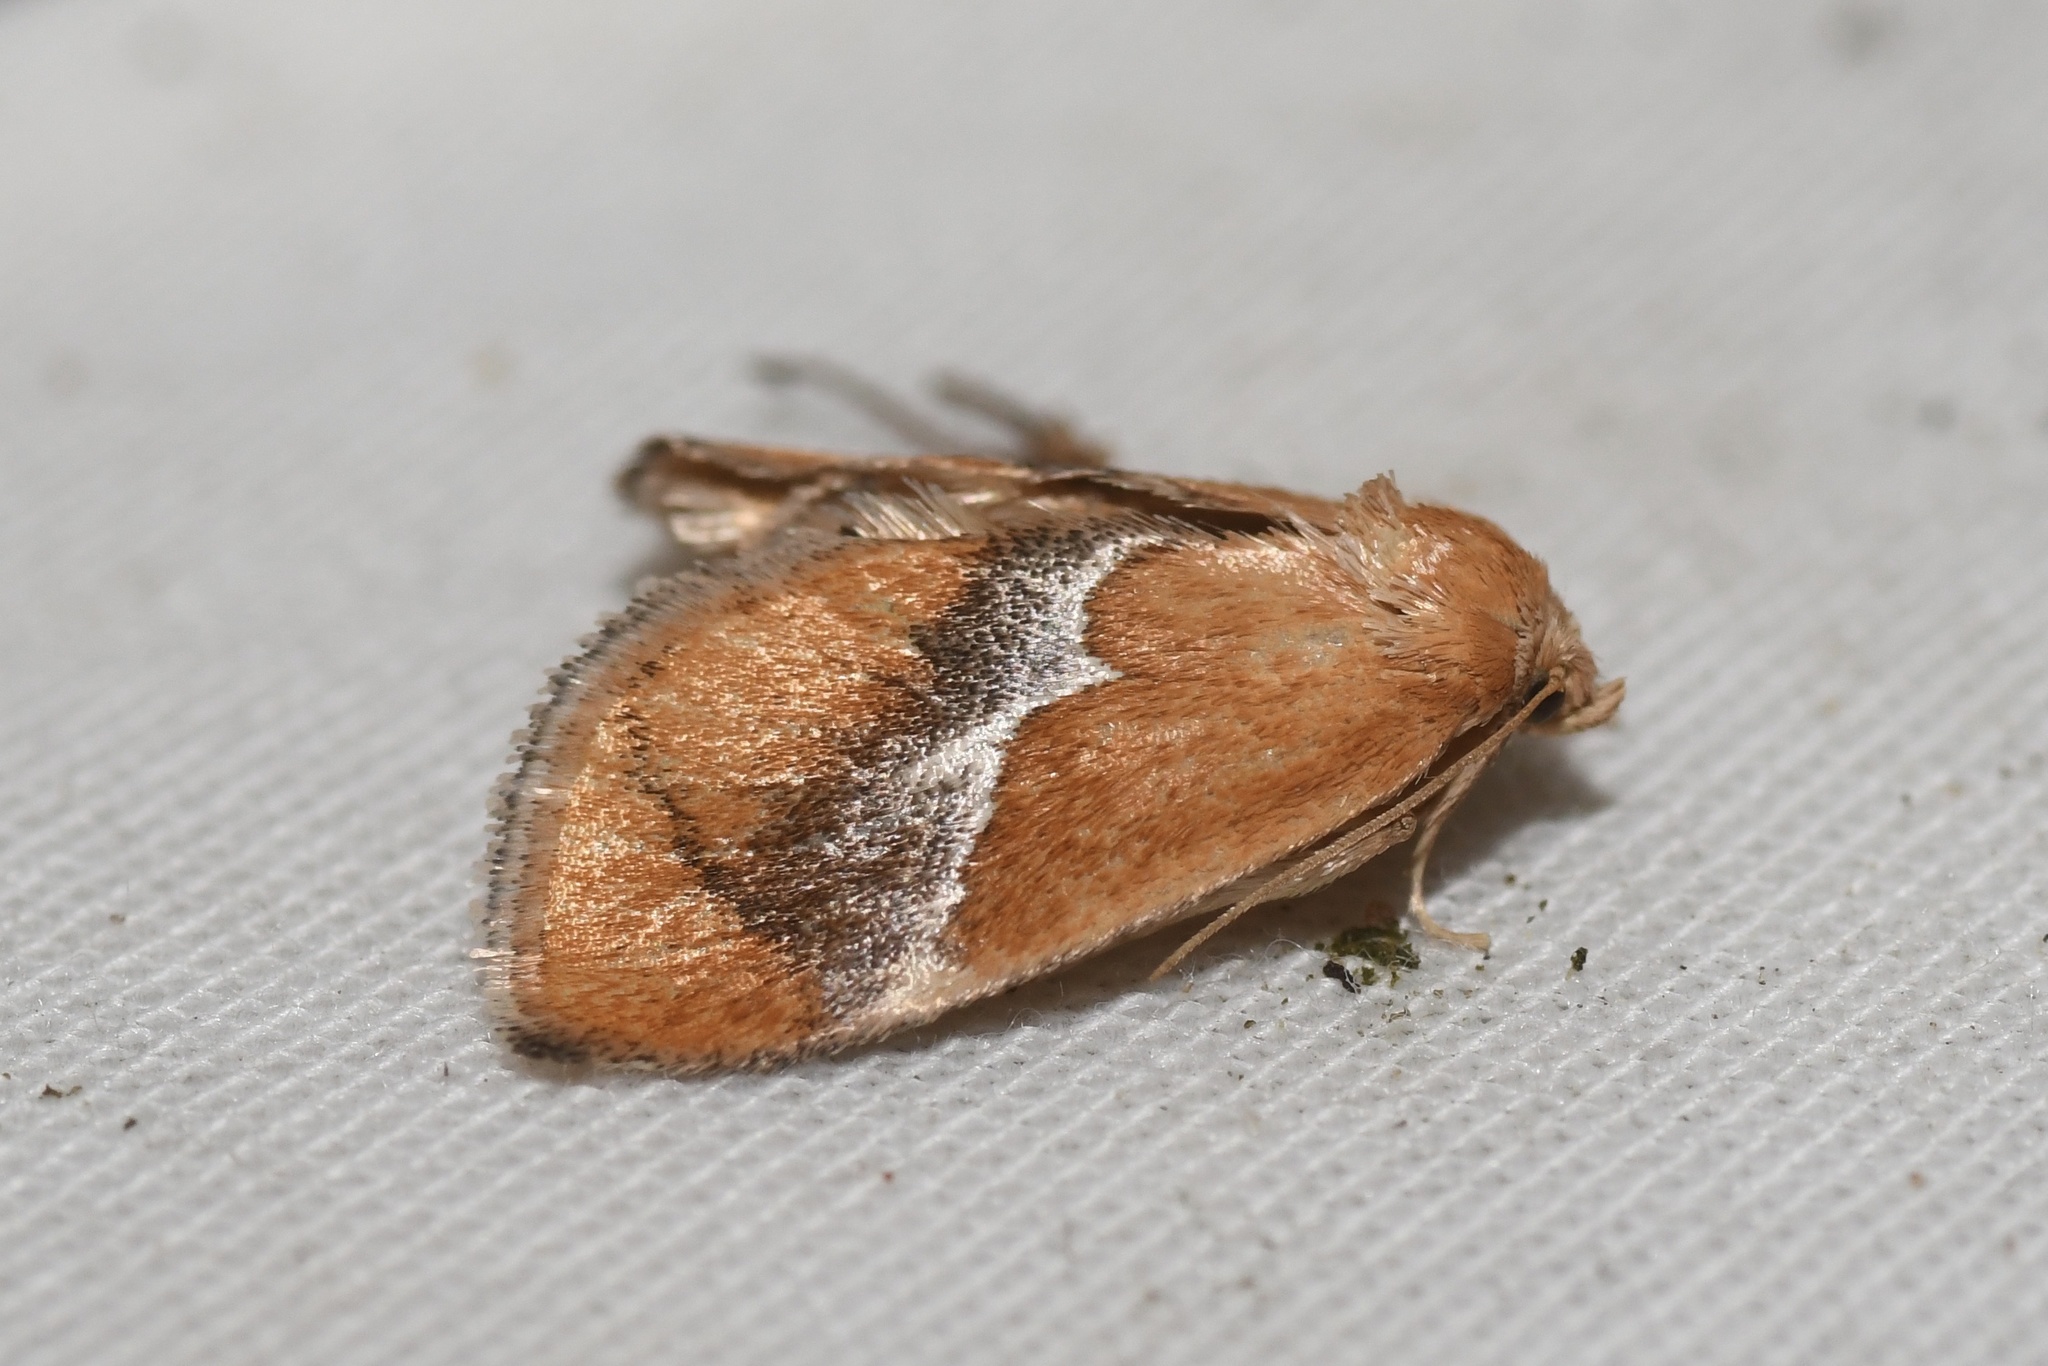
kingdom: Animalia
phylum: Arthropoda
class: Insecta
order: Lepidoptera
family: Limacodidae
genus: Lithacodes
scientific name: Lithacodes fasciola
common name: Yellow-shouldered slug moth
